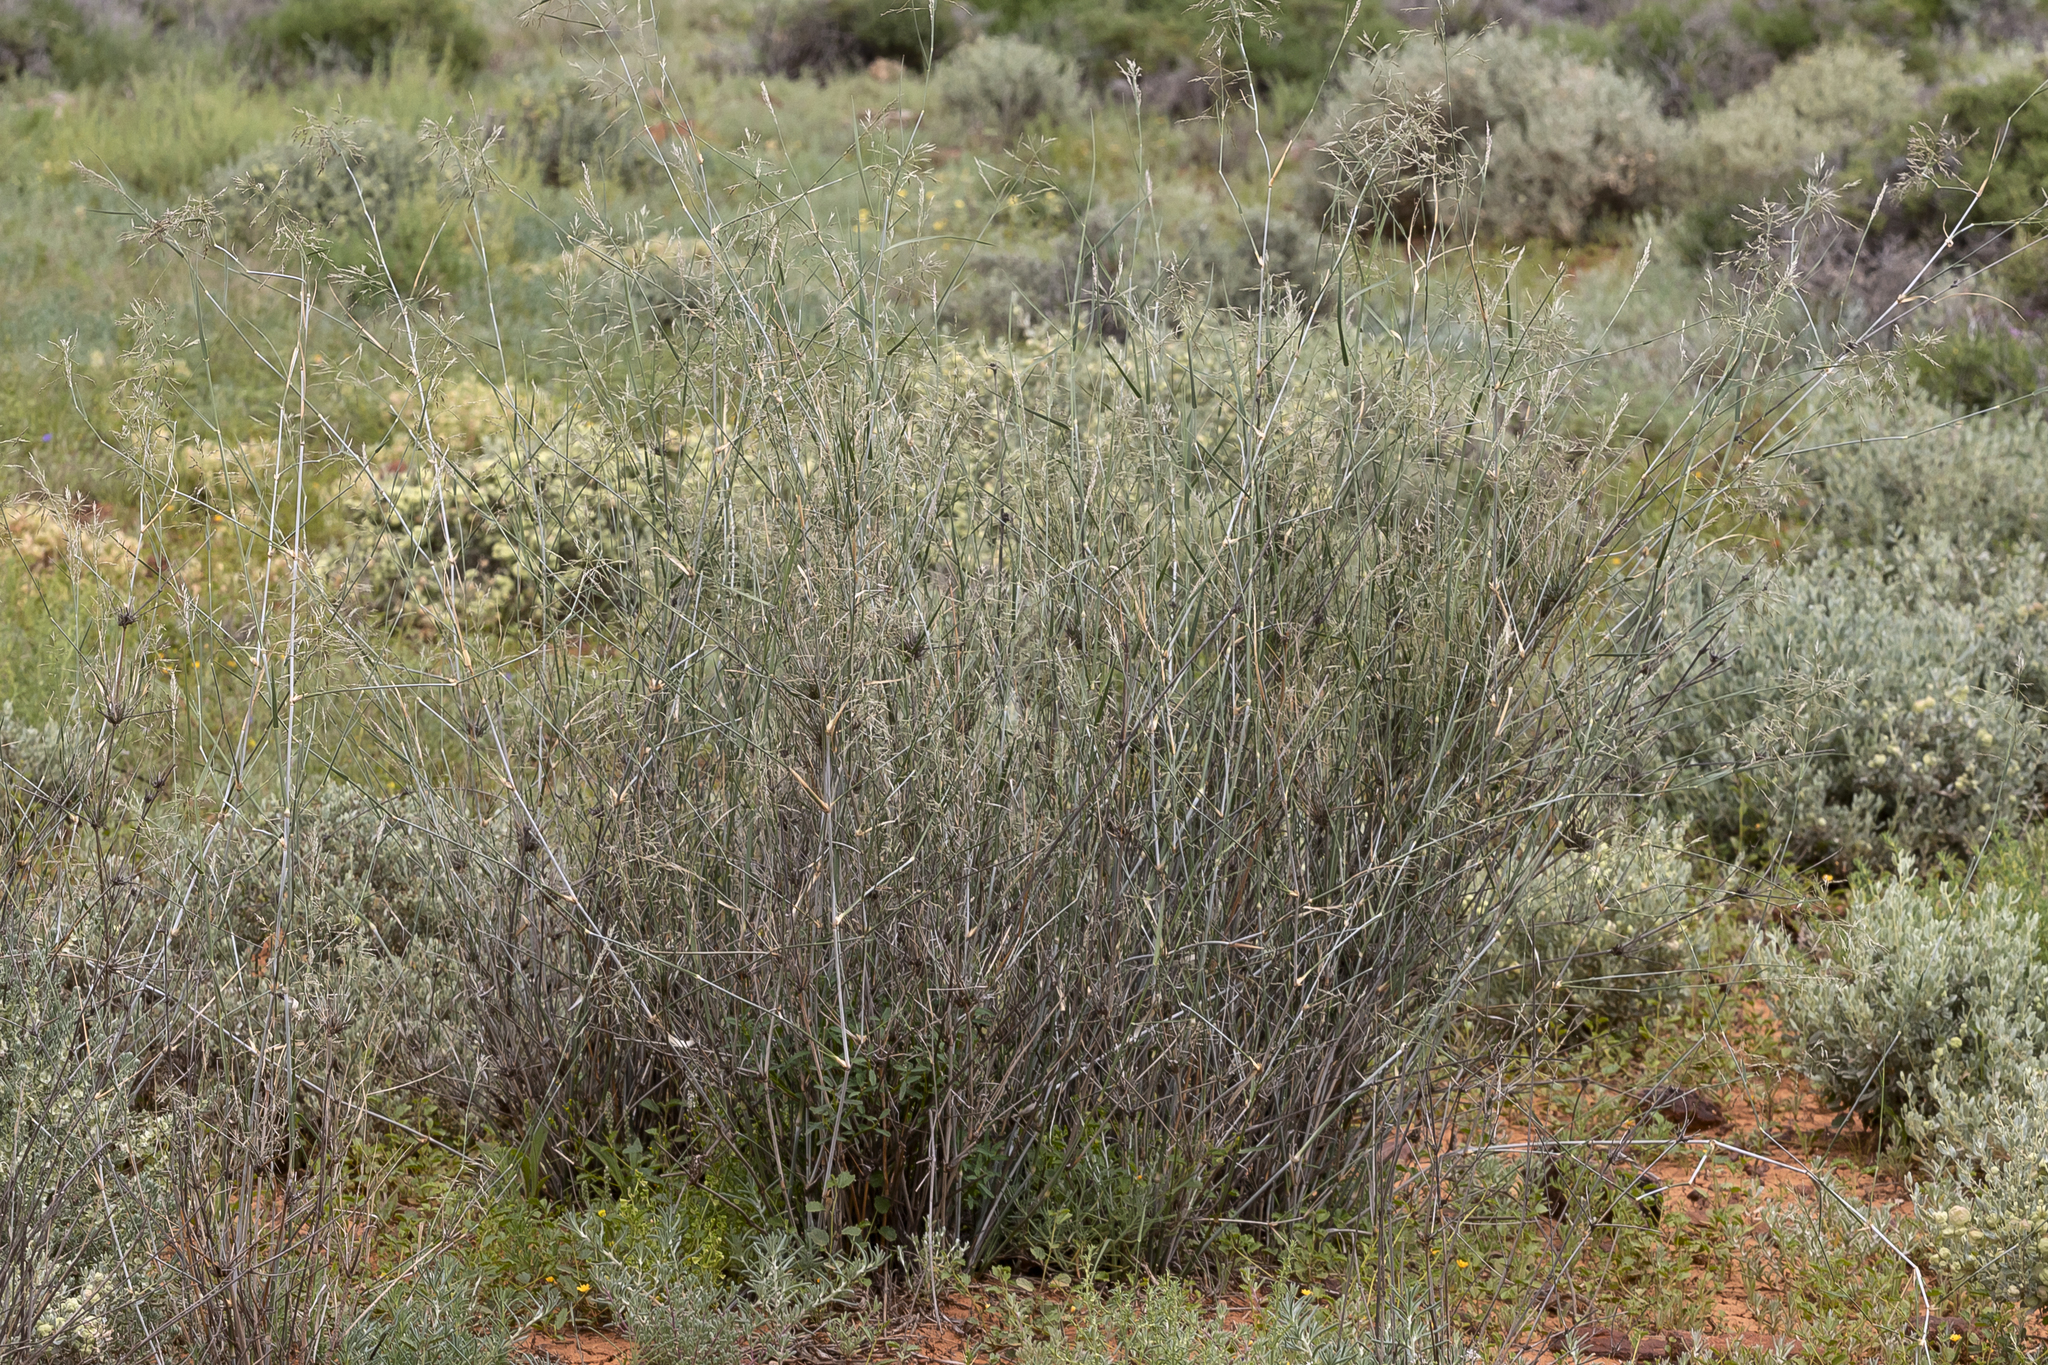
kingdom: Plantae
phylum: Tracheophyta
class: Liliopsida
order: Poales
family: Poaceae
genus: Sporobolus
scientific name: Sporobolus ramigerus
